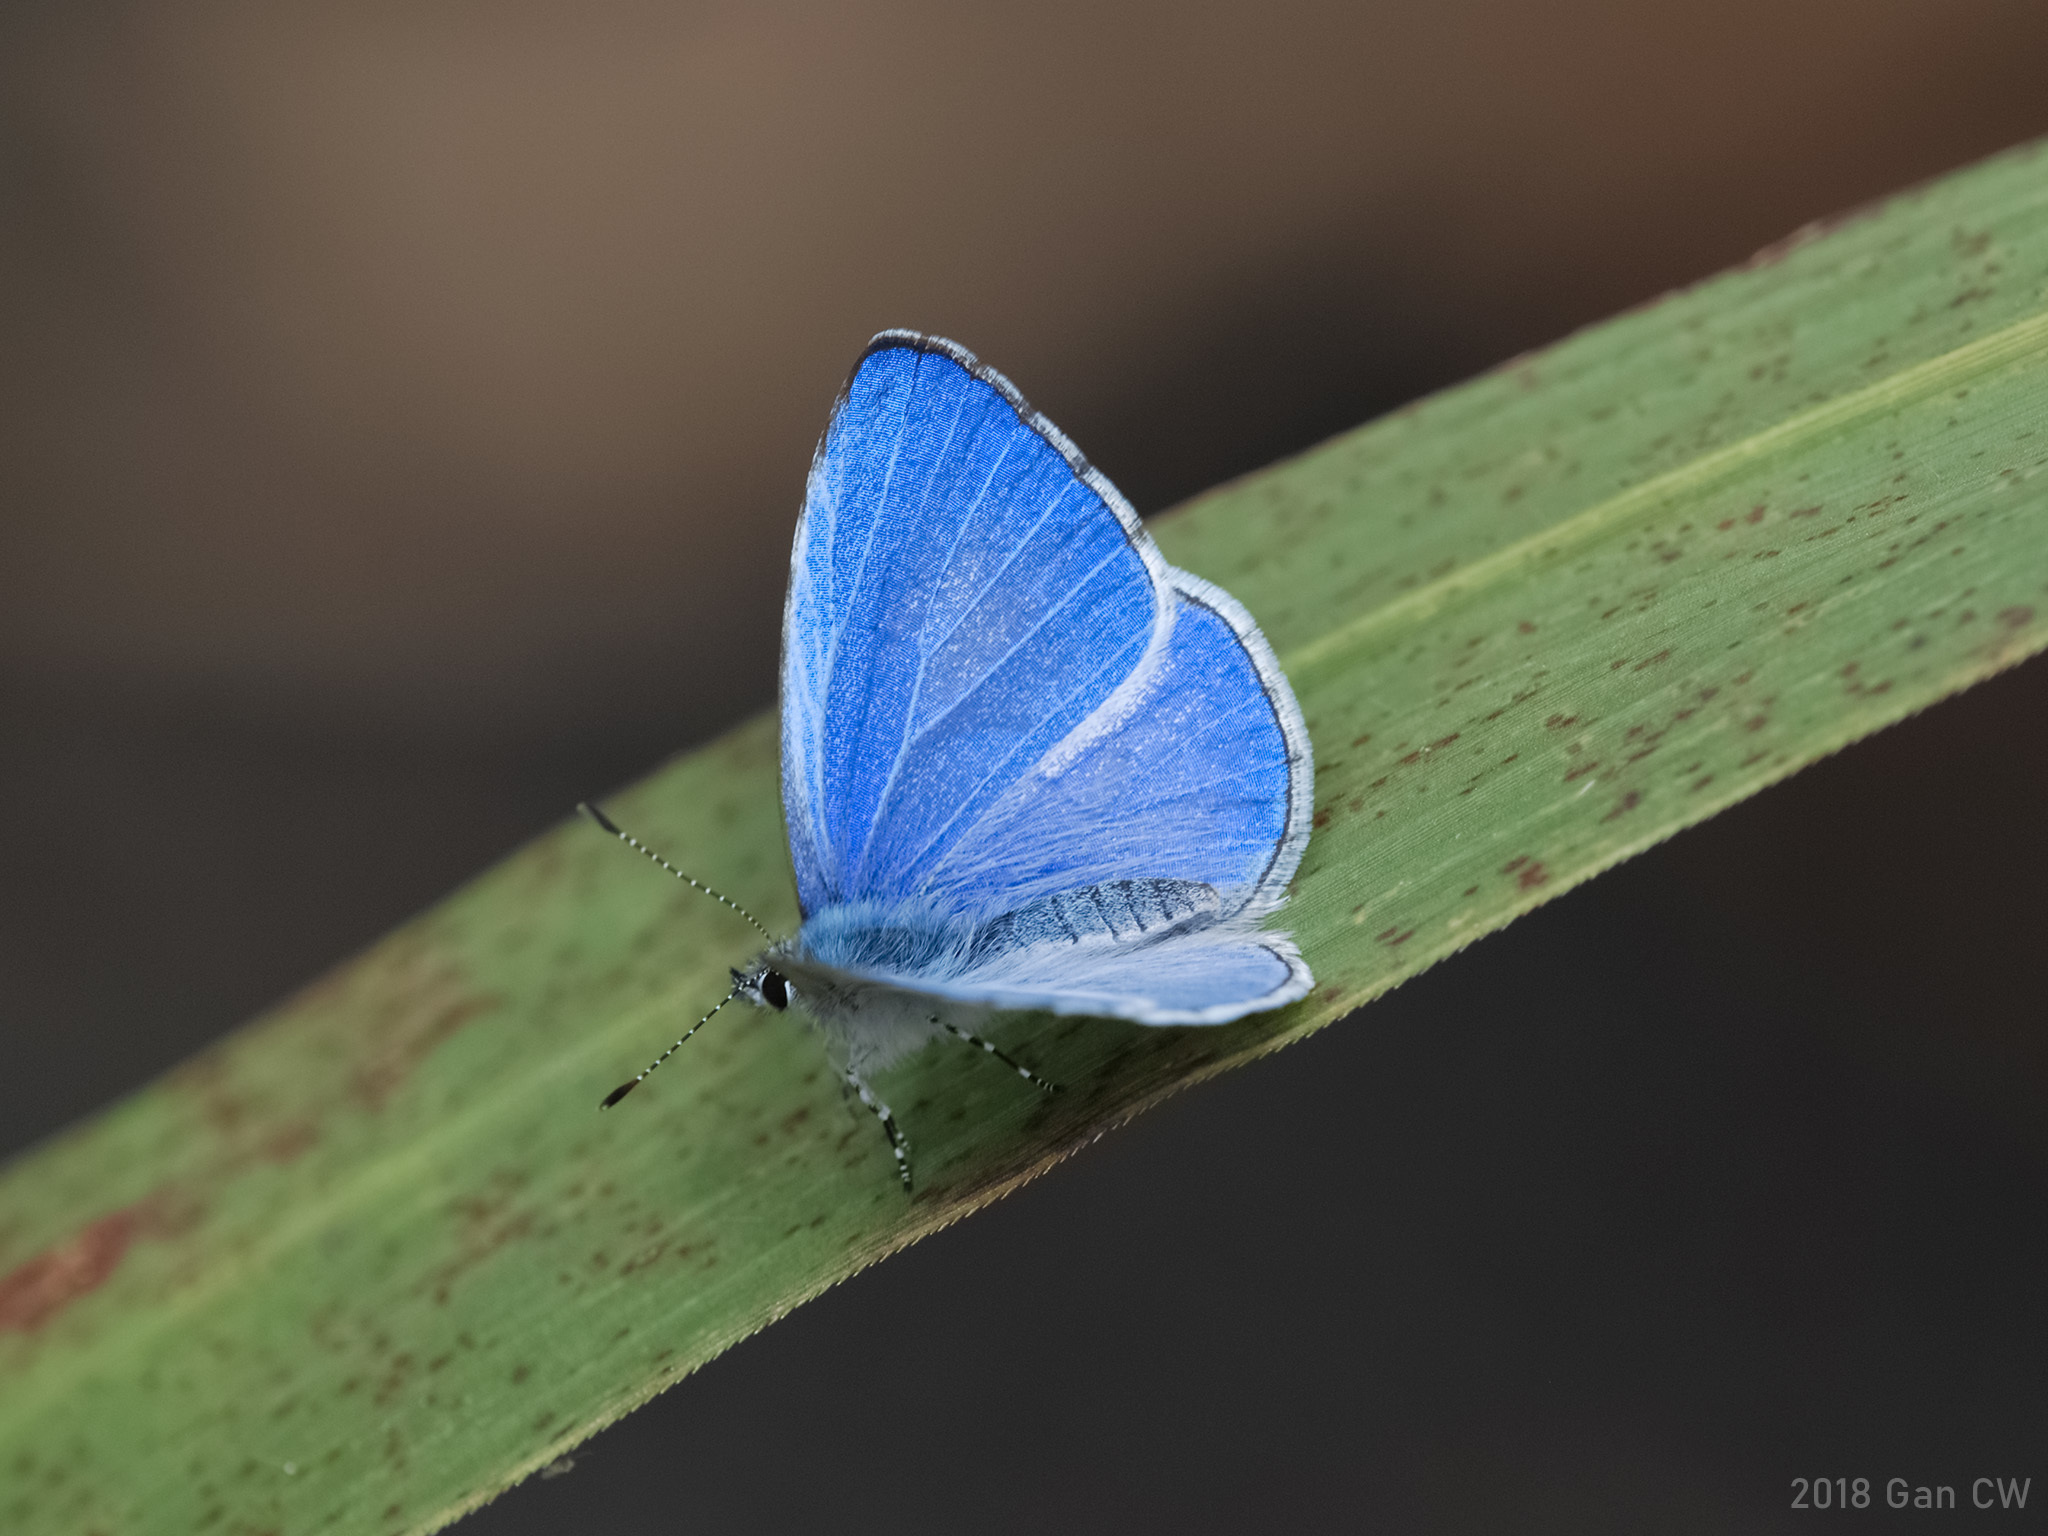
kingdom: Animalia
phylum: Arthropoda
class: Insecta
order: Lepidoptera
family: Lycaenidae
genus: Udara
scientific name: Udara dilectus
